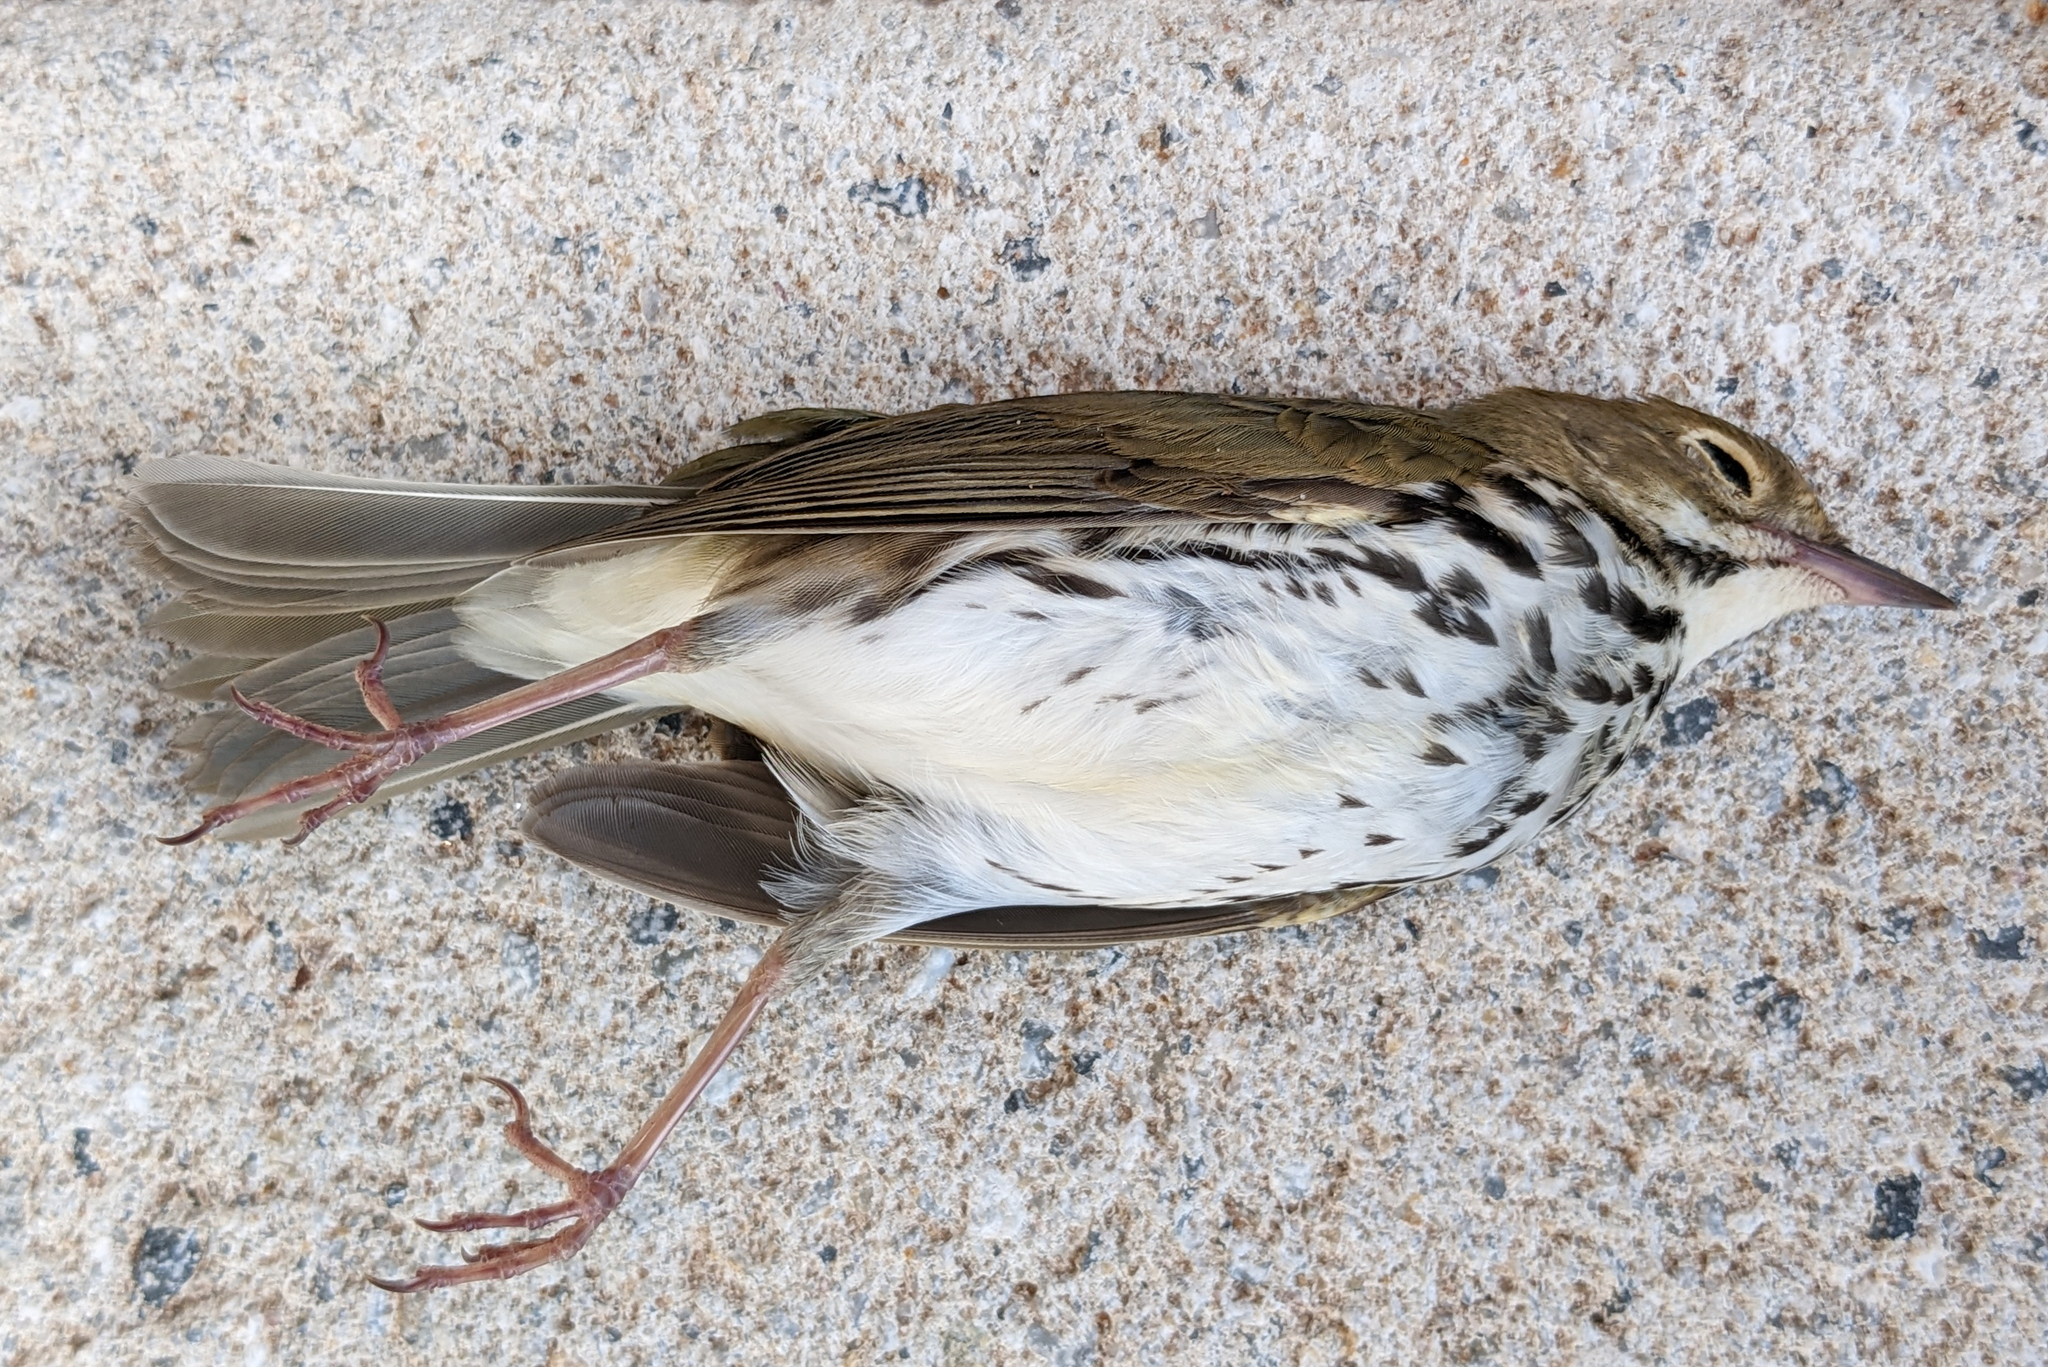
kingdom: Animalia
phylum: Chordata
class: Aves
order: Passeriformes
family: Parulidae
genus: Seiurus
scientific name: Seiurus aurocapilla
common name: Ovenbird
